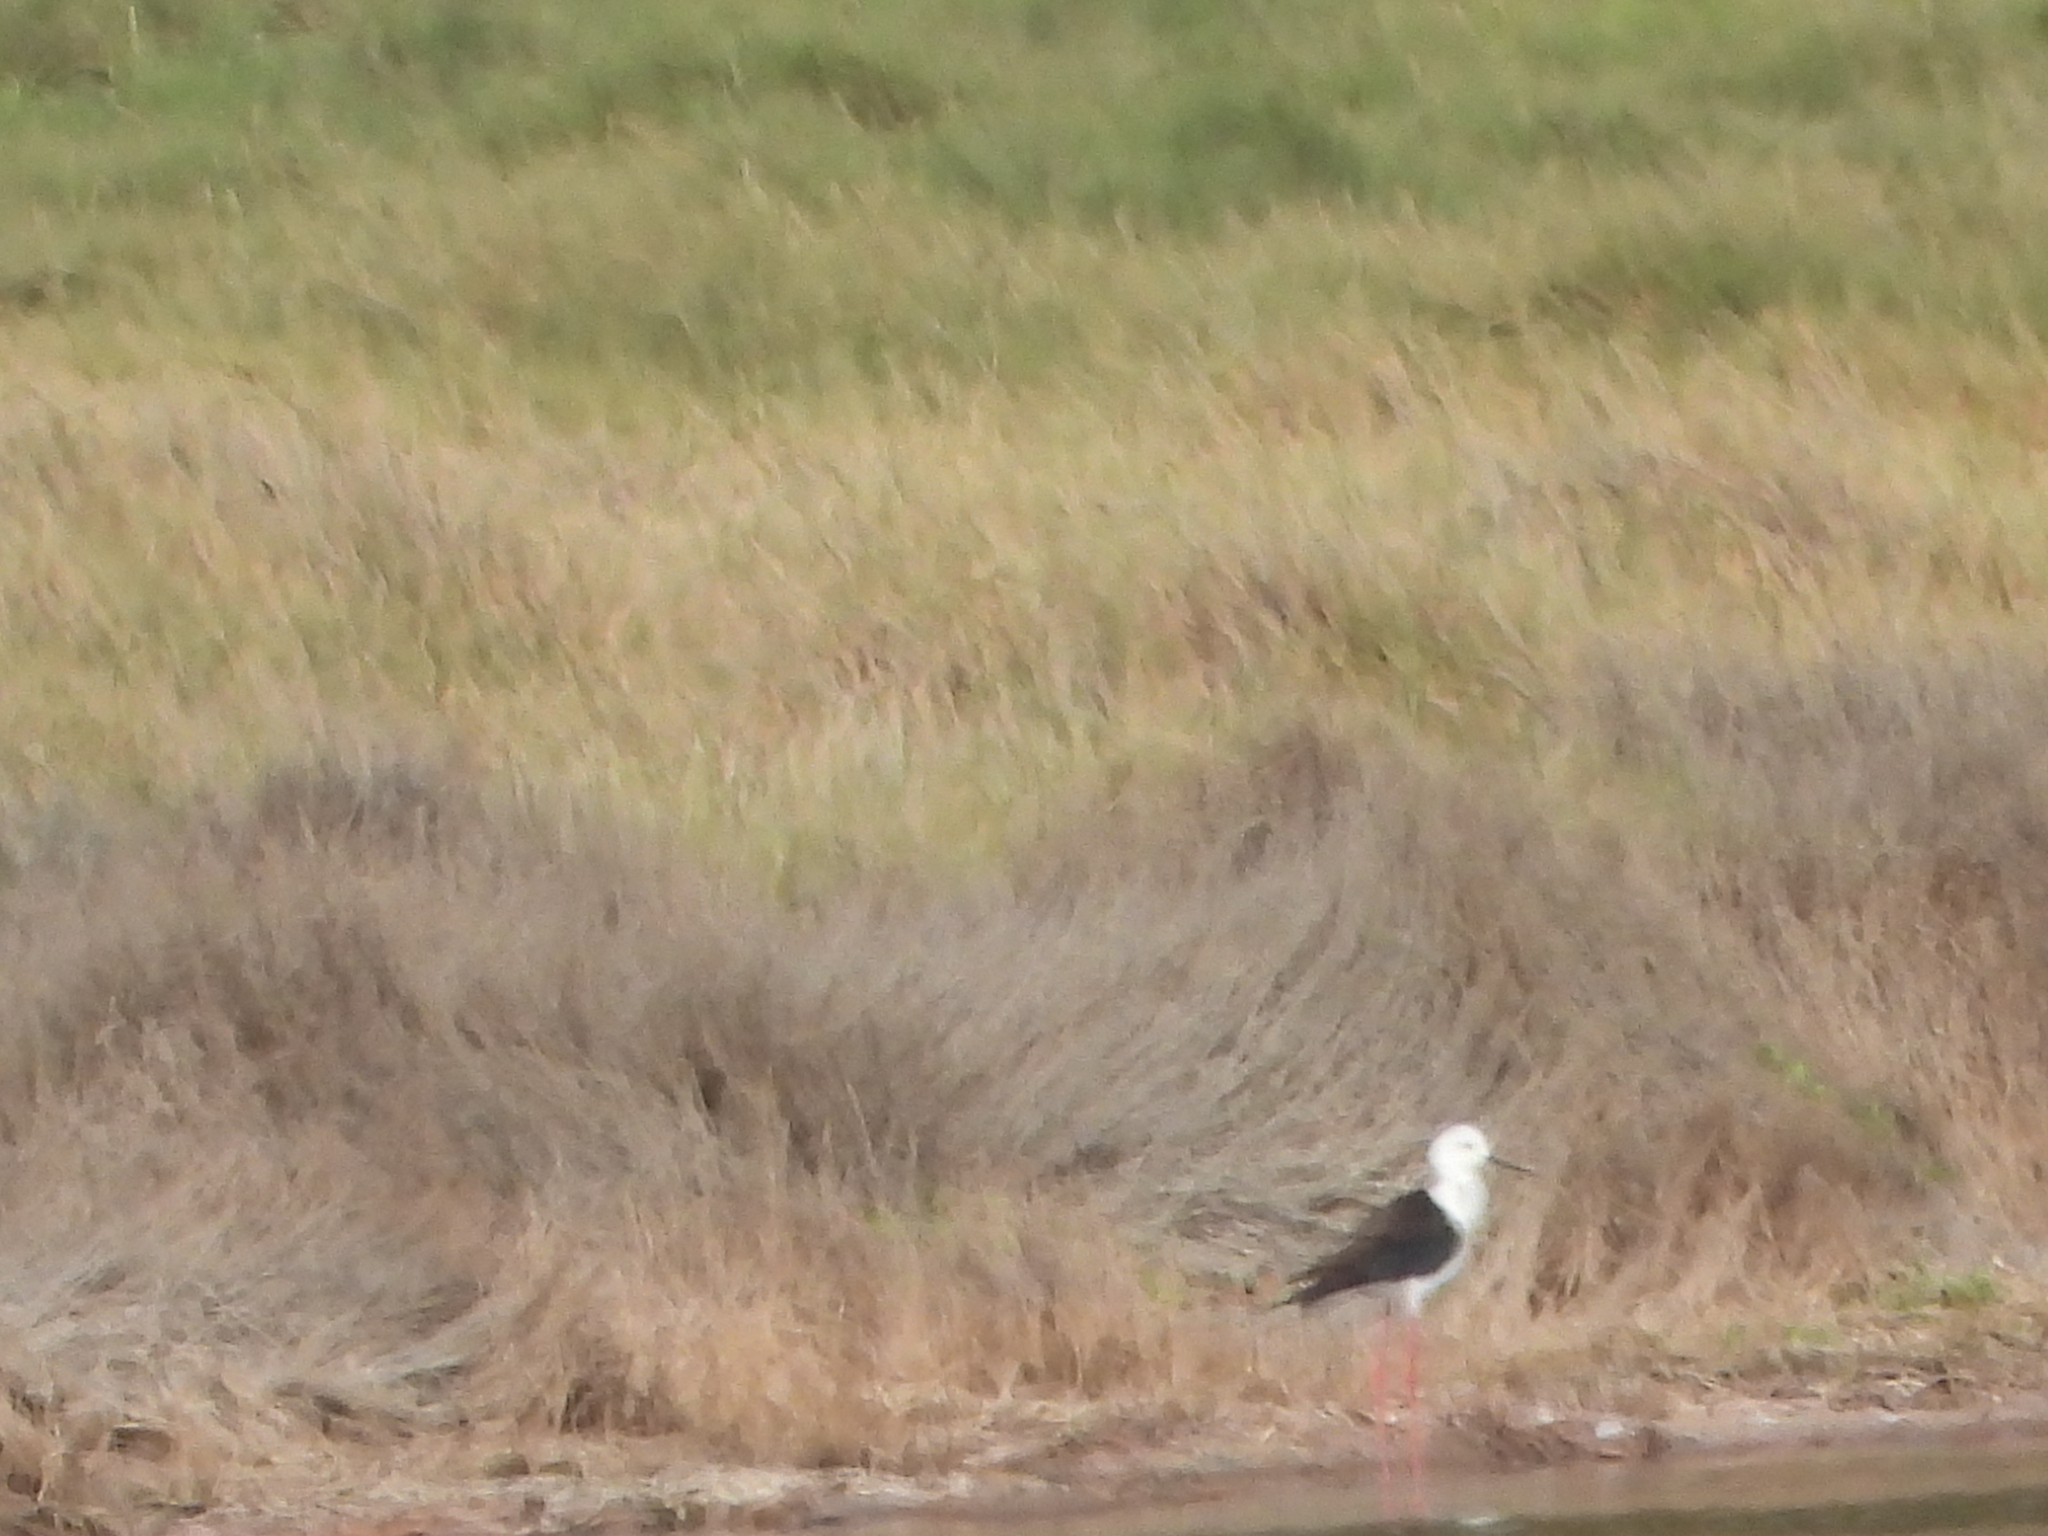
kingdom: Animalia
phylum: Chordata
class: Aves
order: Charadriiformes
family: Recurvirostridae
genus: Himantopus
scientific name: Himantopus himantopus
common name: Black-winged stilt
